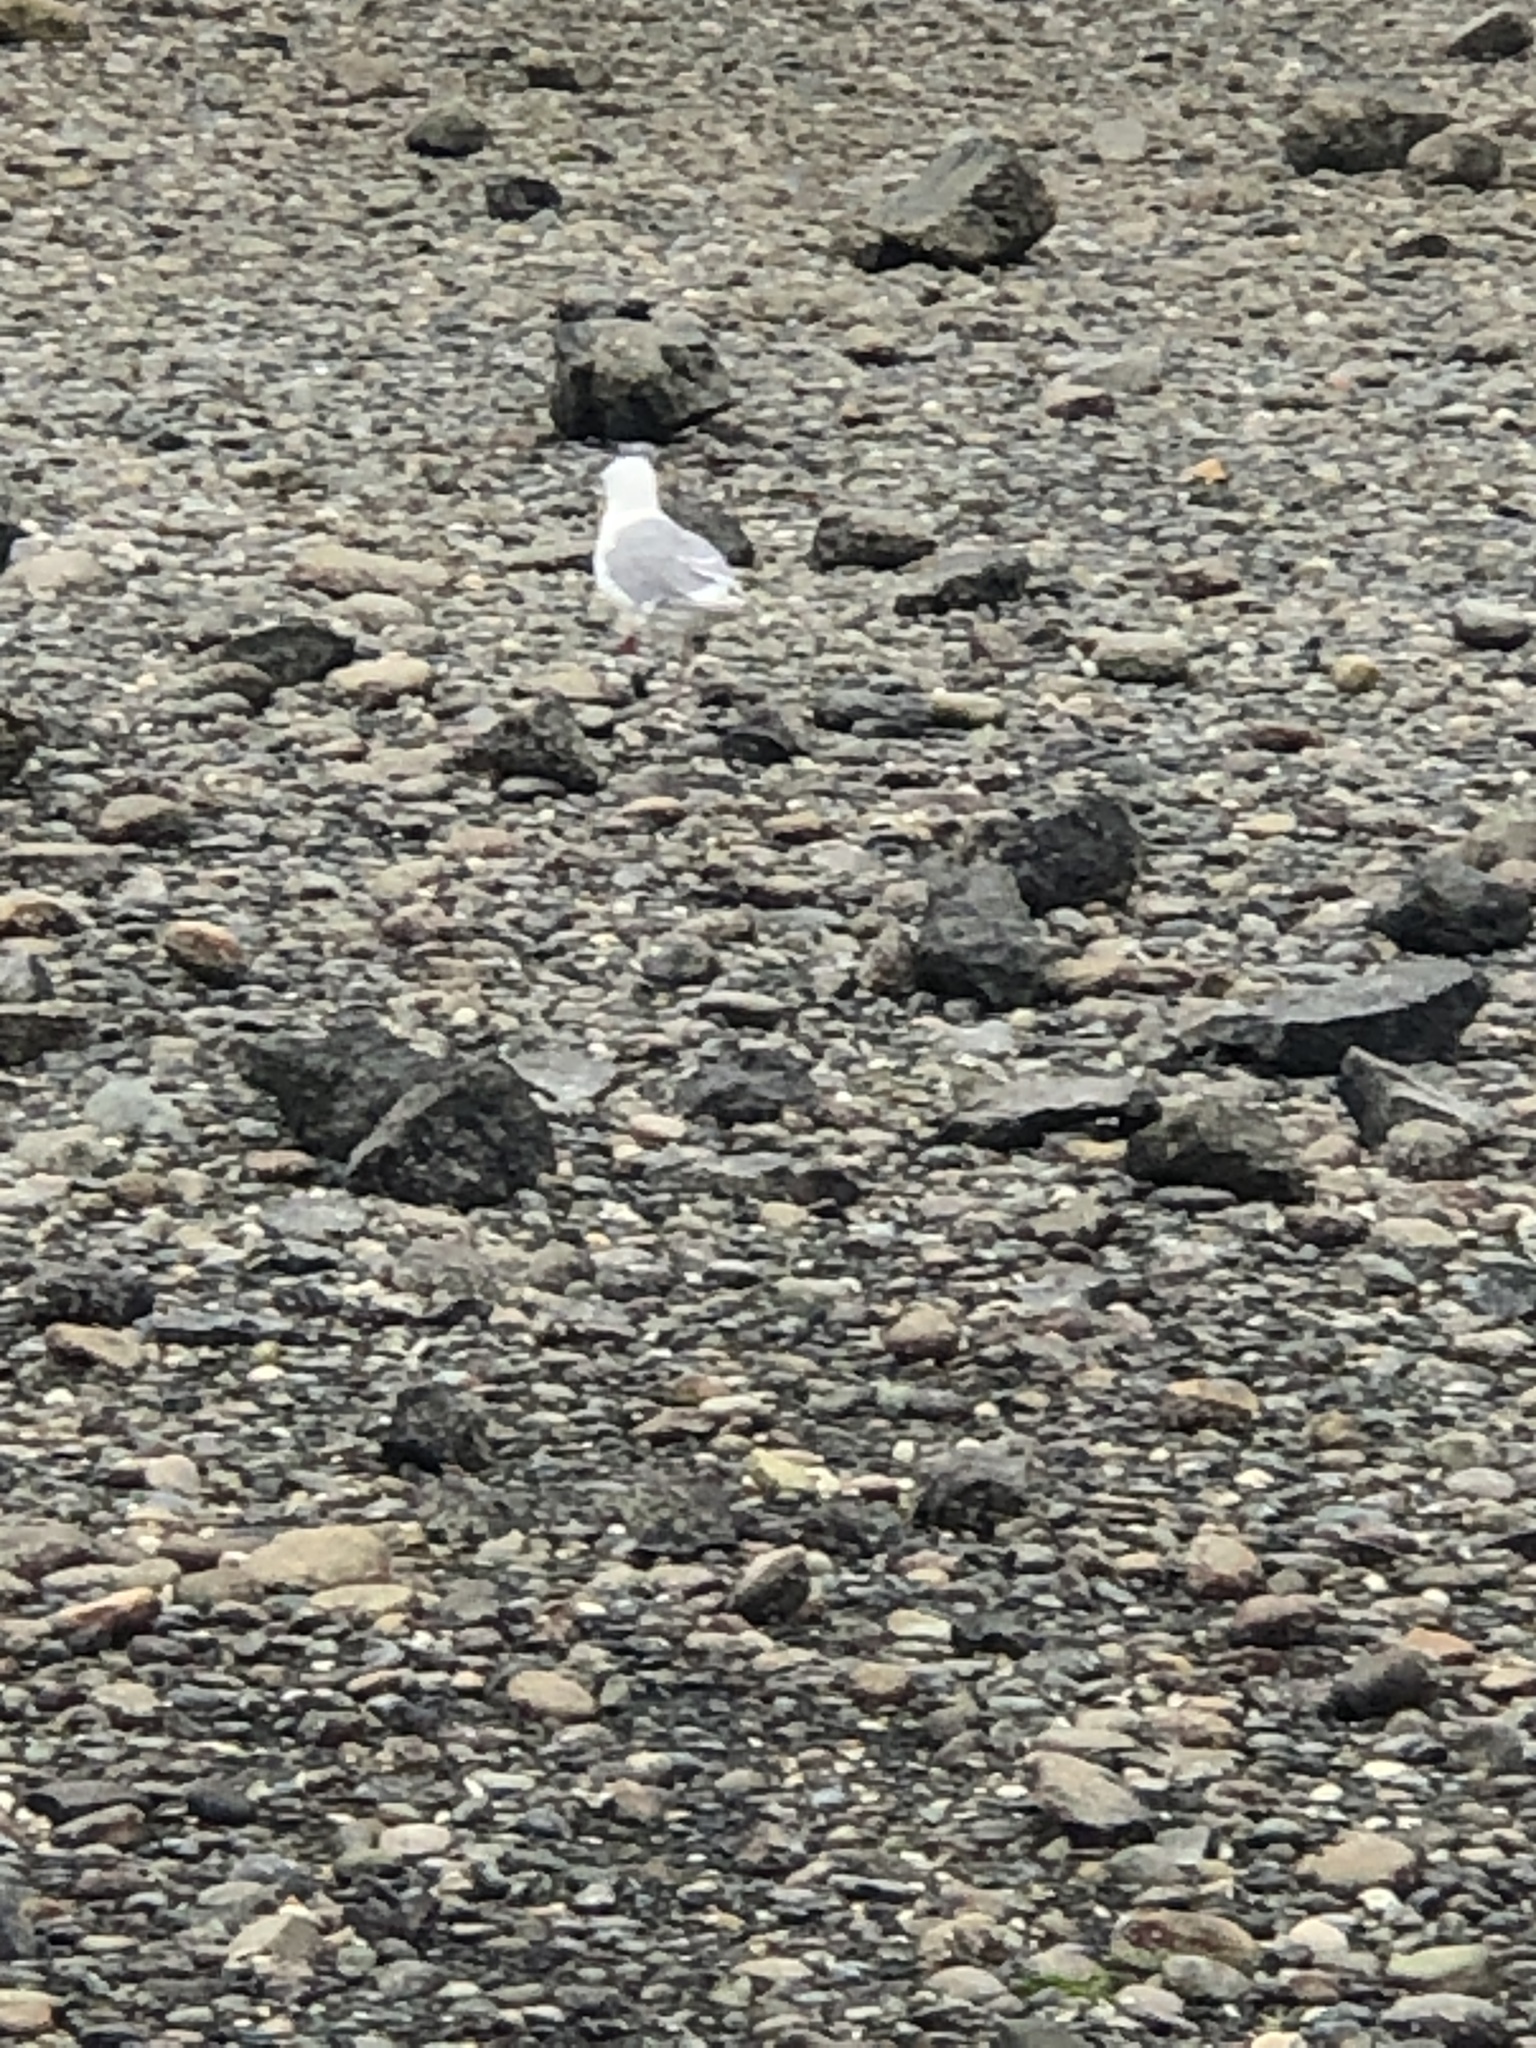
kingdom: Animalia
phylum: Chordata
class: Aves
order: Charadriiformes
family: Laridae
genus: Larus
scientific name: Larus
